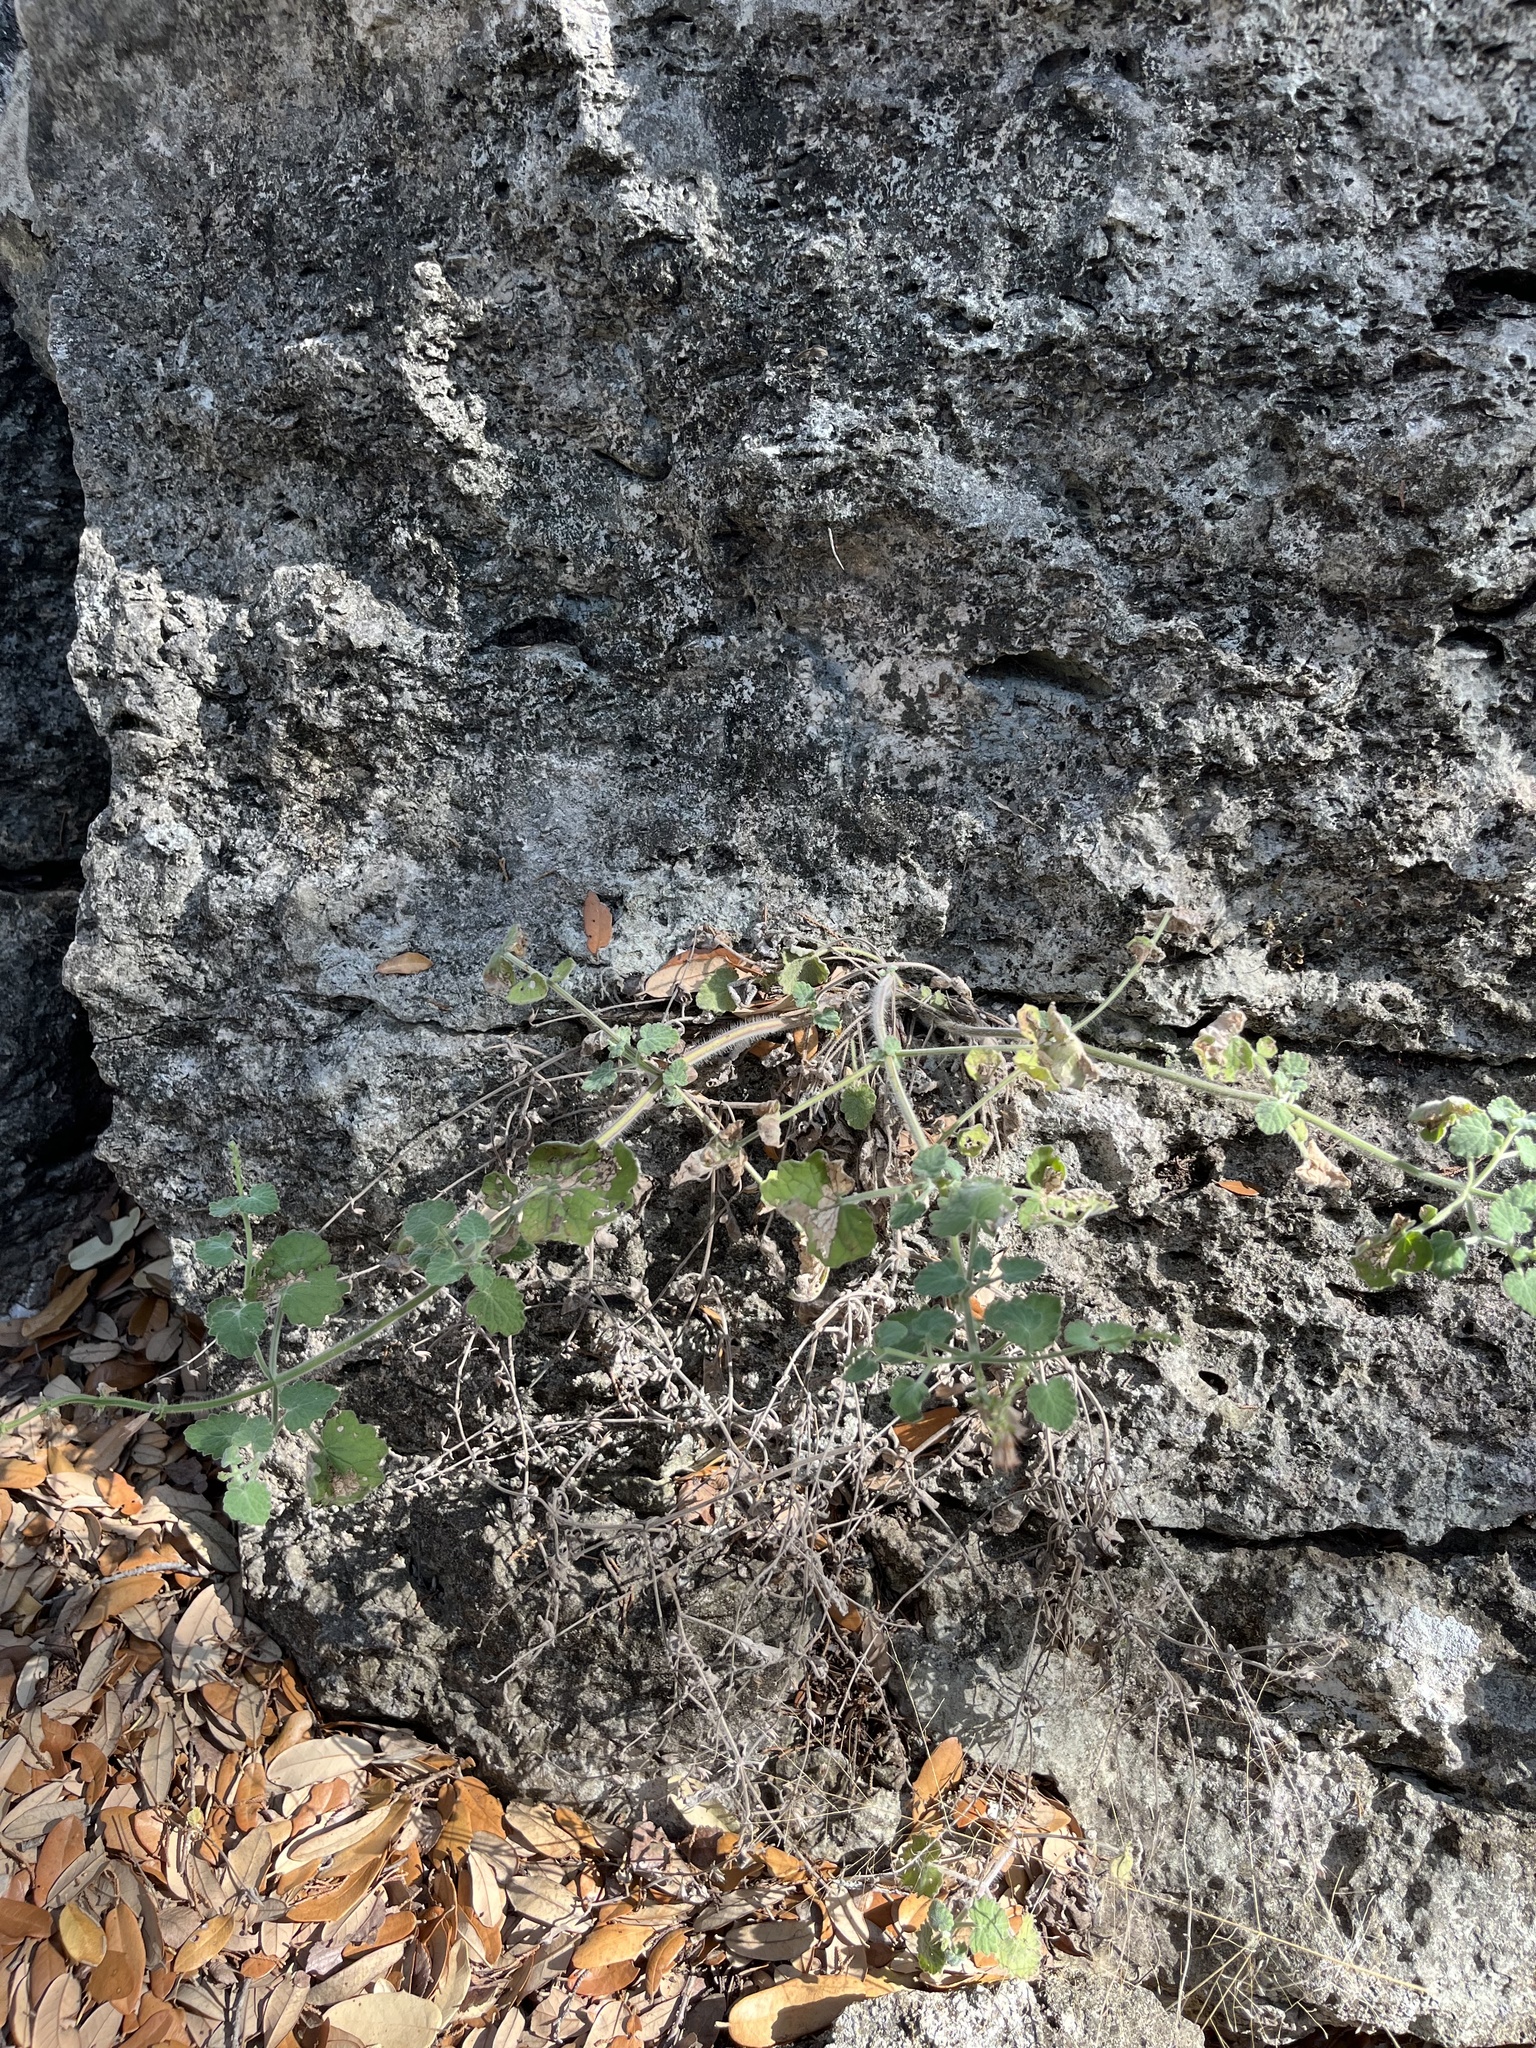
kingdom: Plantae
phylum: Tracheophyta
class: Magnoliopsida
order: Lamiales
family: Lamiaceae
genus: Salvia
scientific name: Salvia roemeriana
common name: Cedar sage
